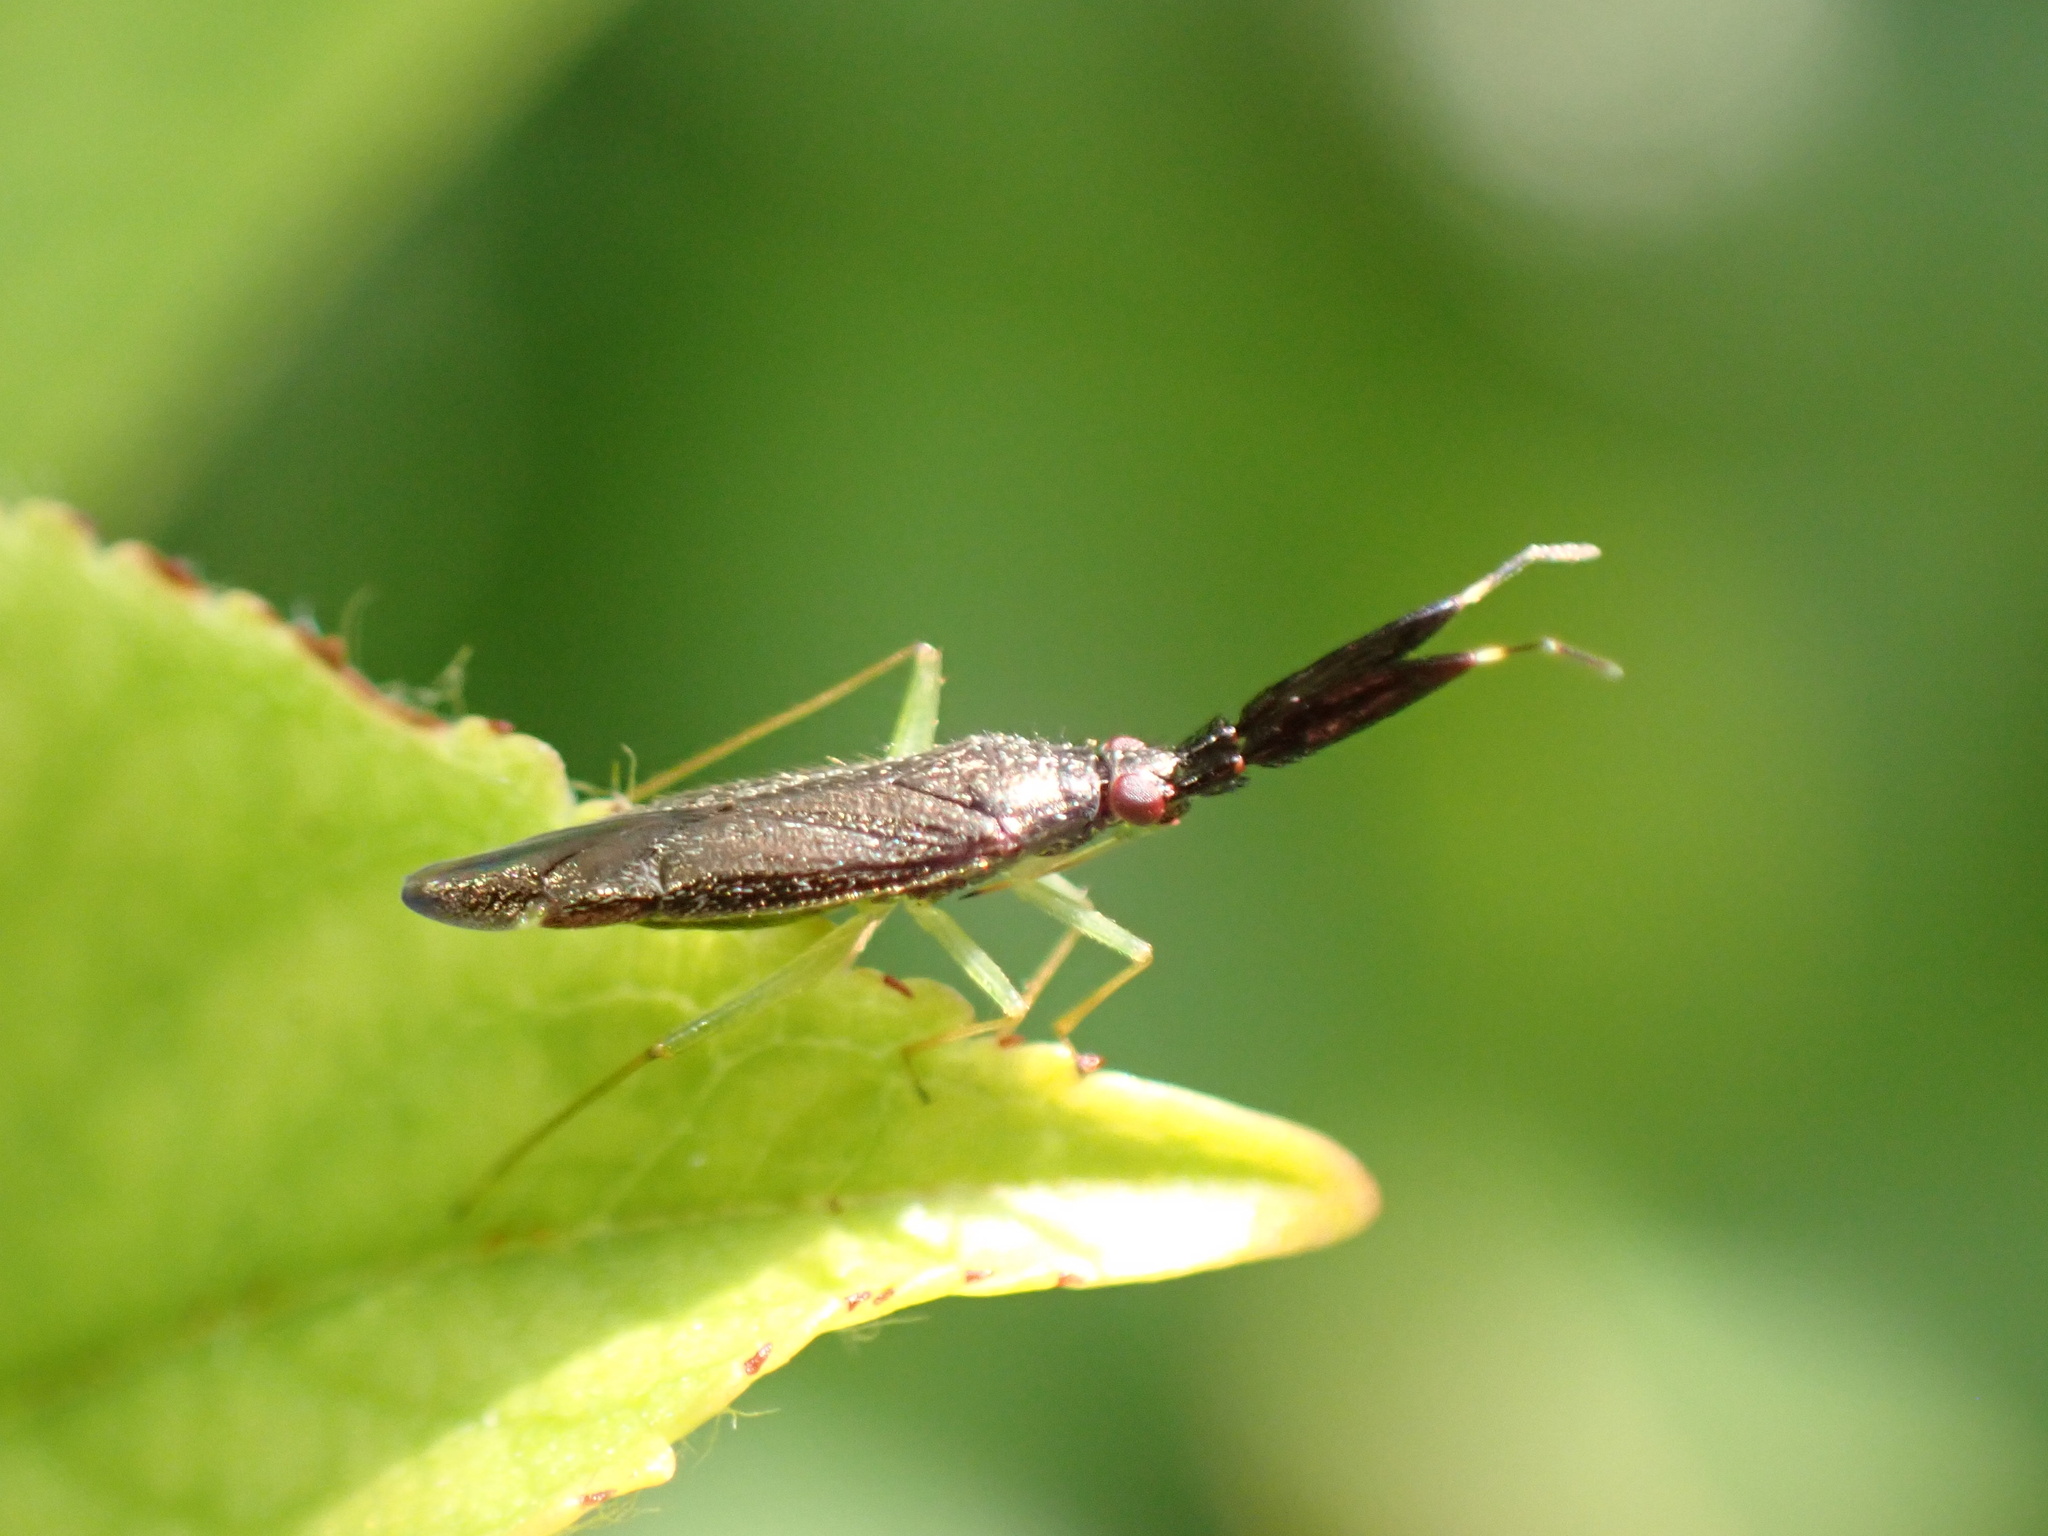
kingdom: Animalia
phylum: Arthropoda
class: Insecta
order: Hemiptera
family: Miridae
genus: Heterotoma
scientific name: Heterotoma planicornis
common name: Plant bug
